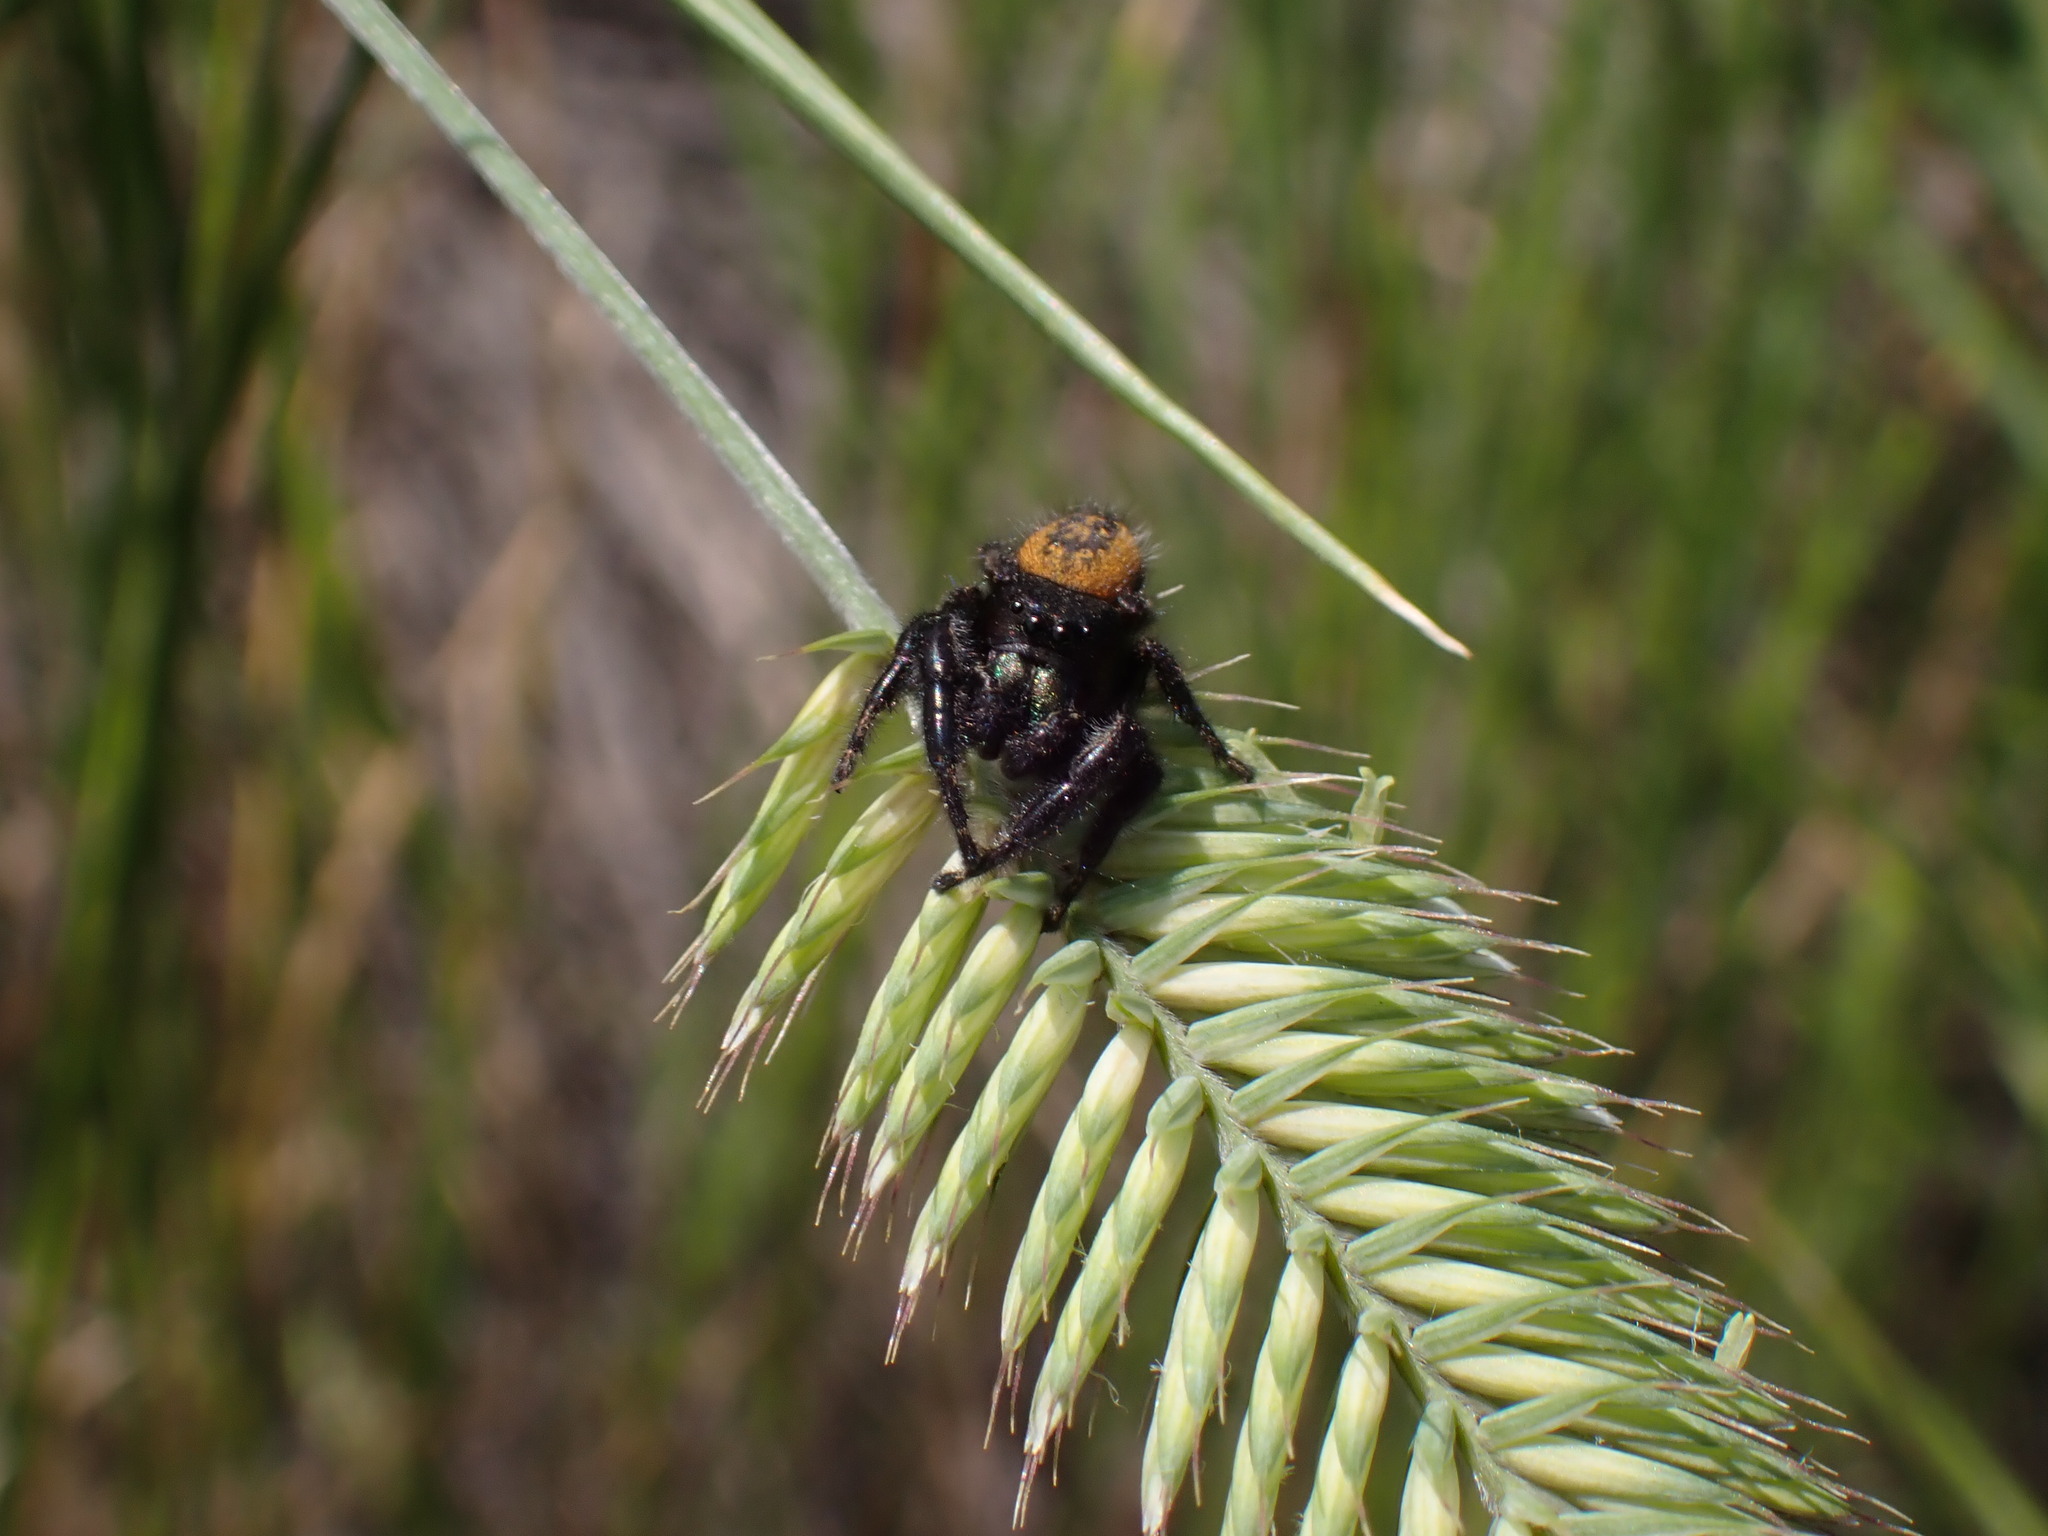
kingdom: Animalia
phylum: Arthropoda
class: Arachnida
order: Araneae
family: Salticidae
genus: Phidippus
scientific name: Phidippus purpuratus
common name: Marbled purple jumping spider
